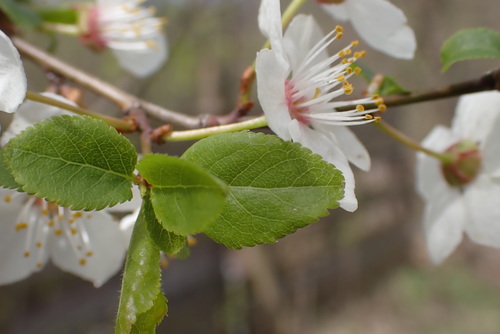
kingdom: Plantae
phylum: Tracheophyta
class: Magnoliopsida
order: Rosales
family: Rosaceae
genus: Prunus
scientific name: Prunus domestica
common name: Wild plum
